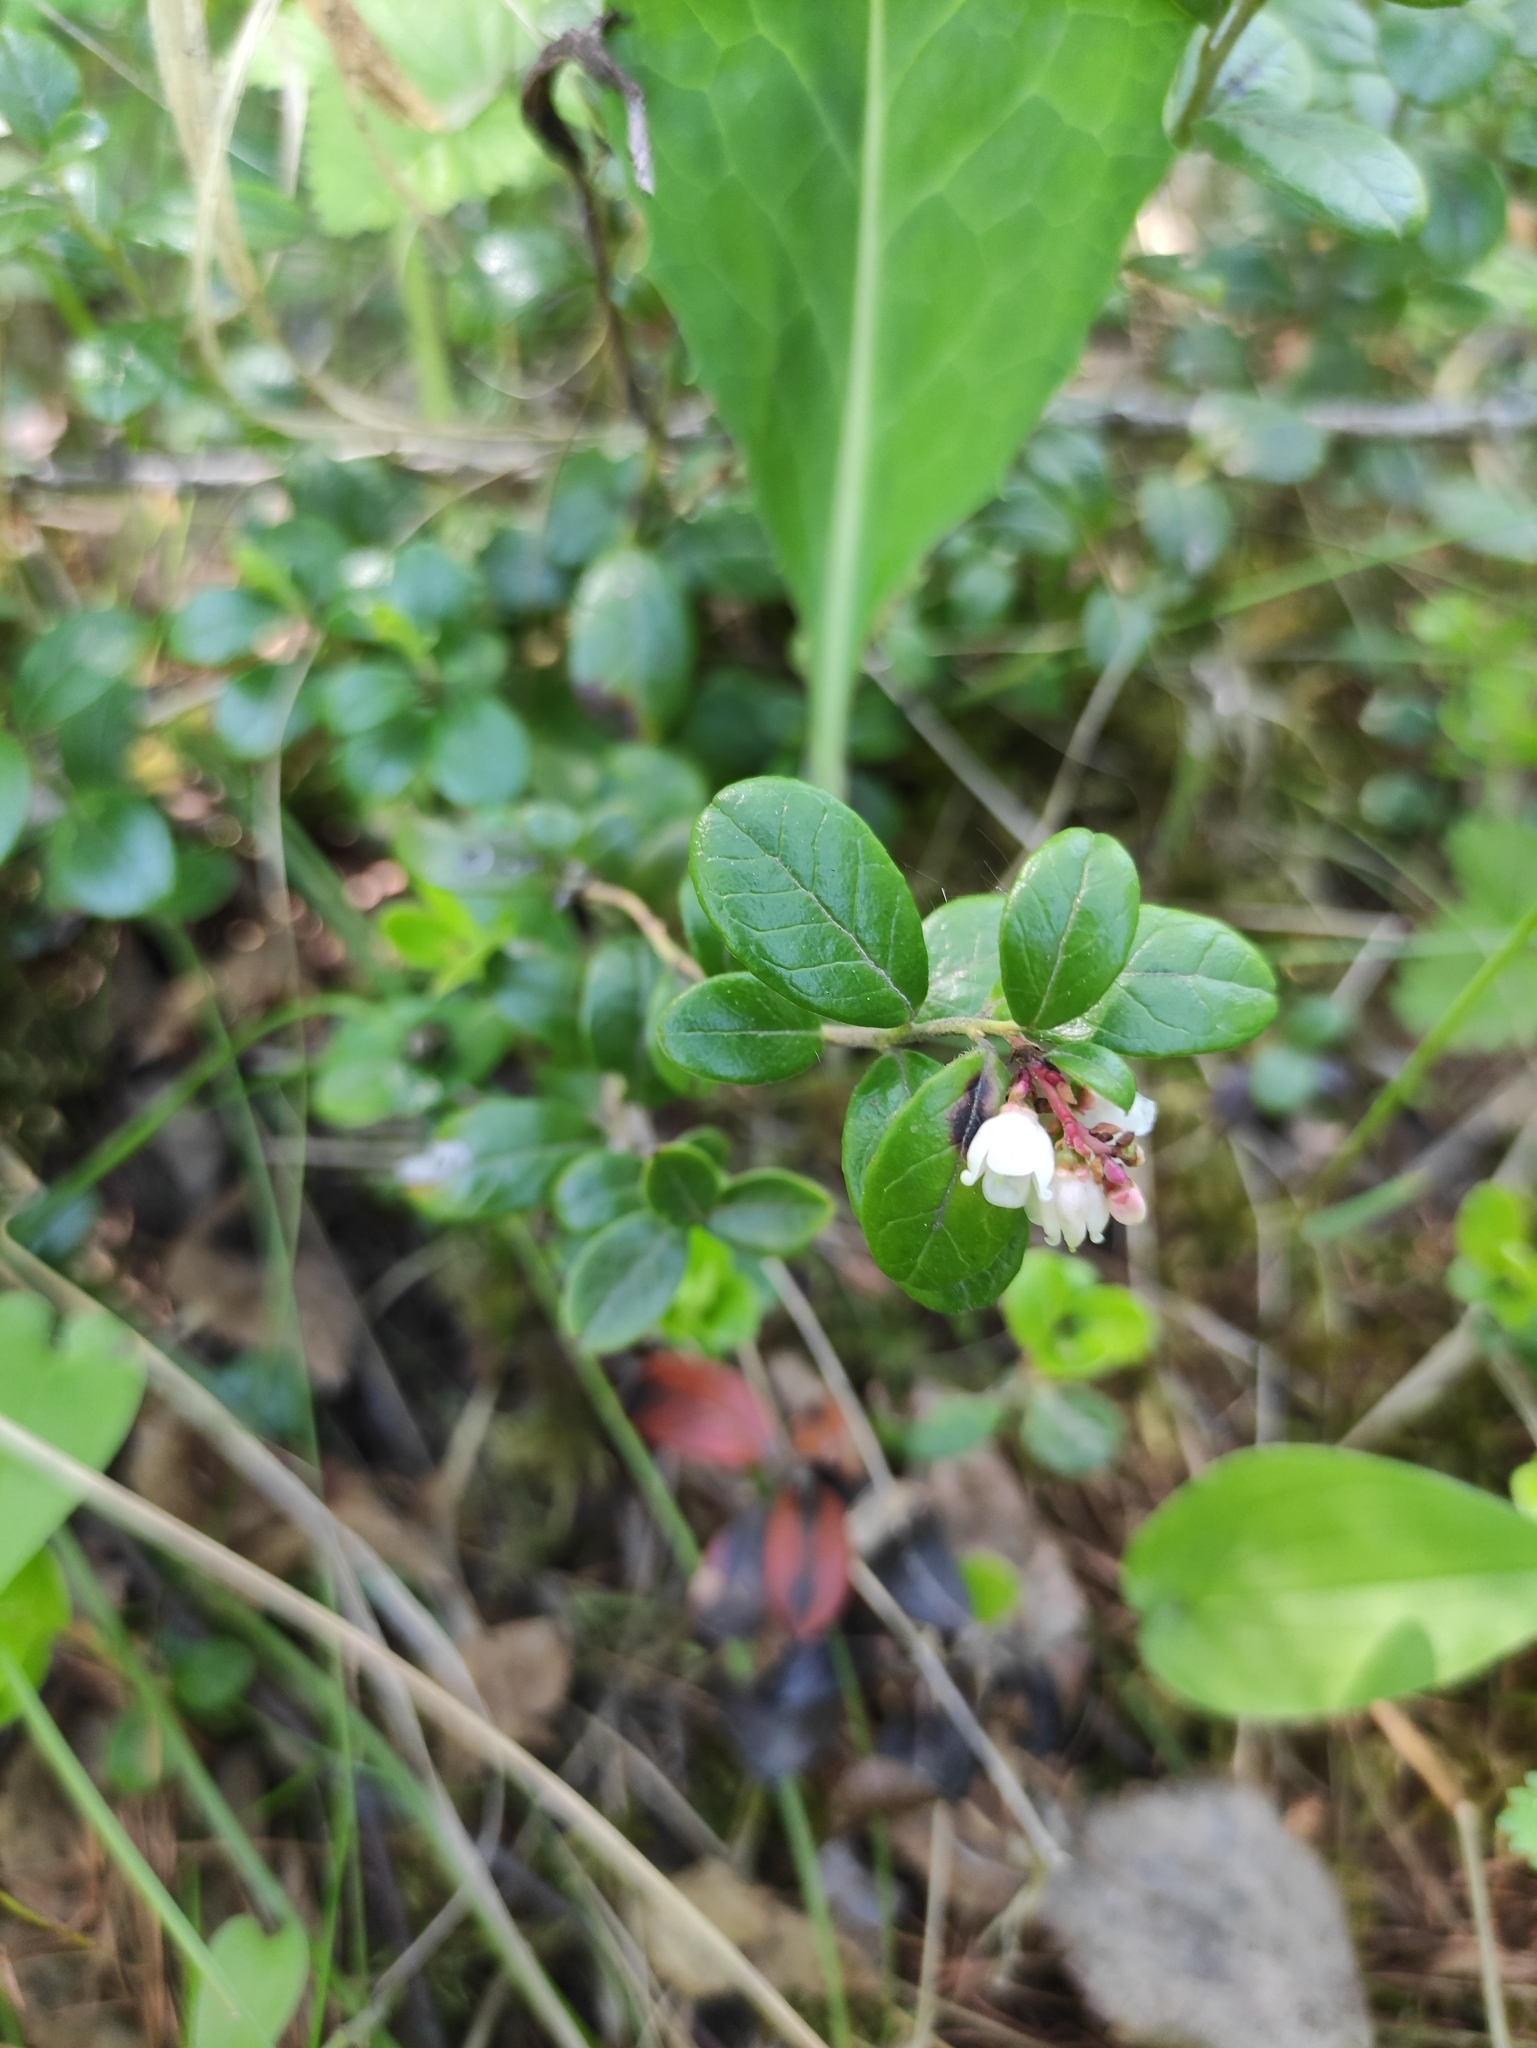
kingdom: Plantae
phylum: Tracheophyta
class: Magnoliopsida
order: Ericales
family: Ericaceae
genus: Vaccinium
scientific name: Vaccinium vitis-idaea
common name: Cowberry
